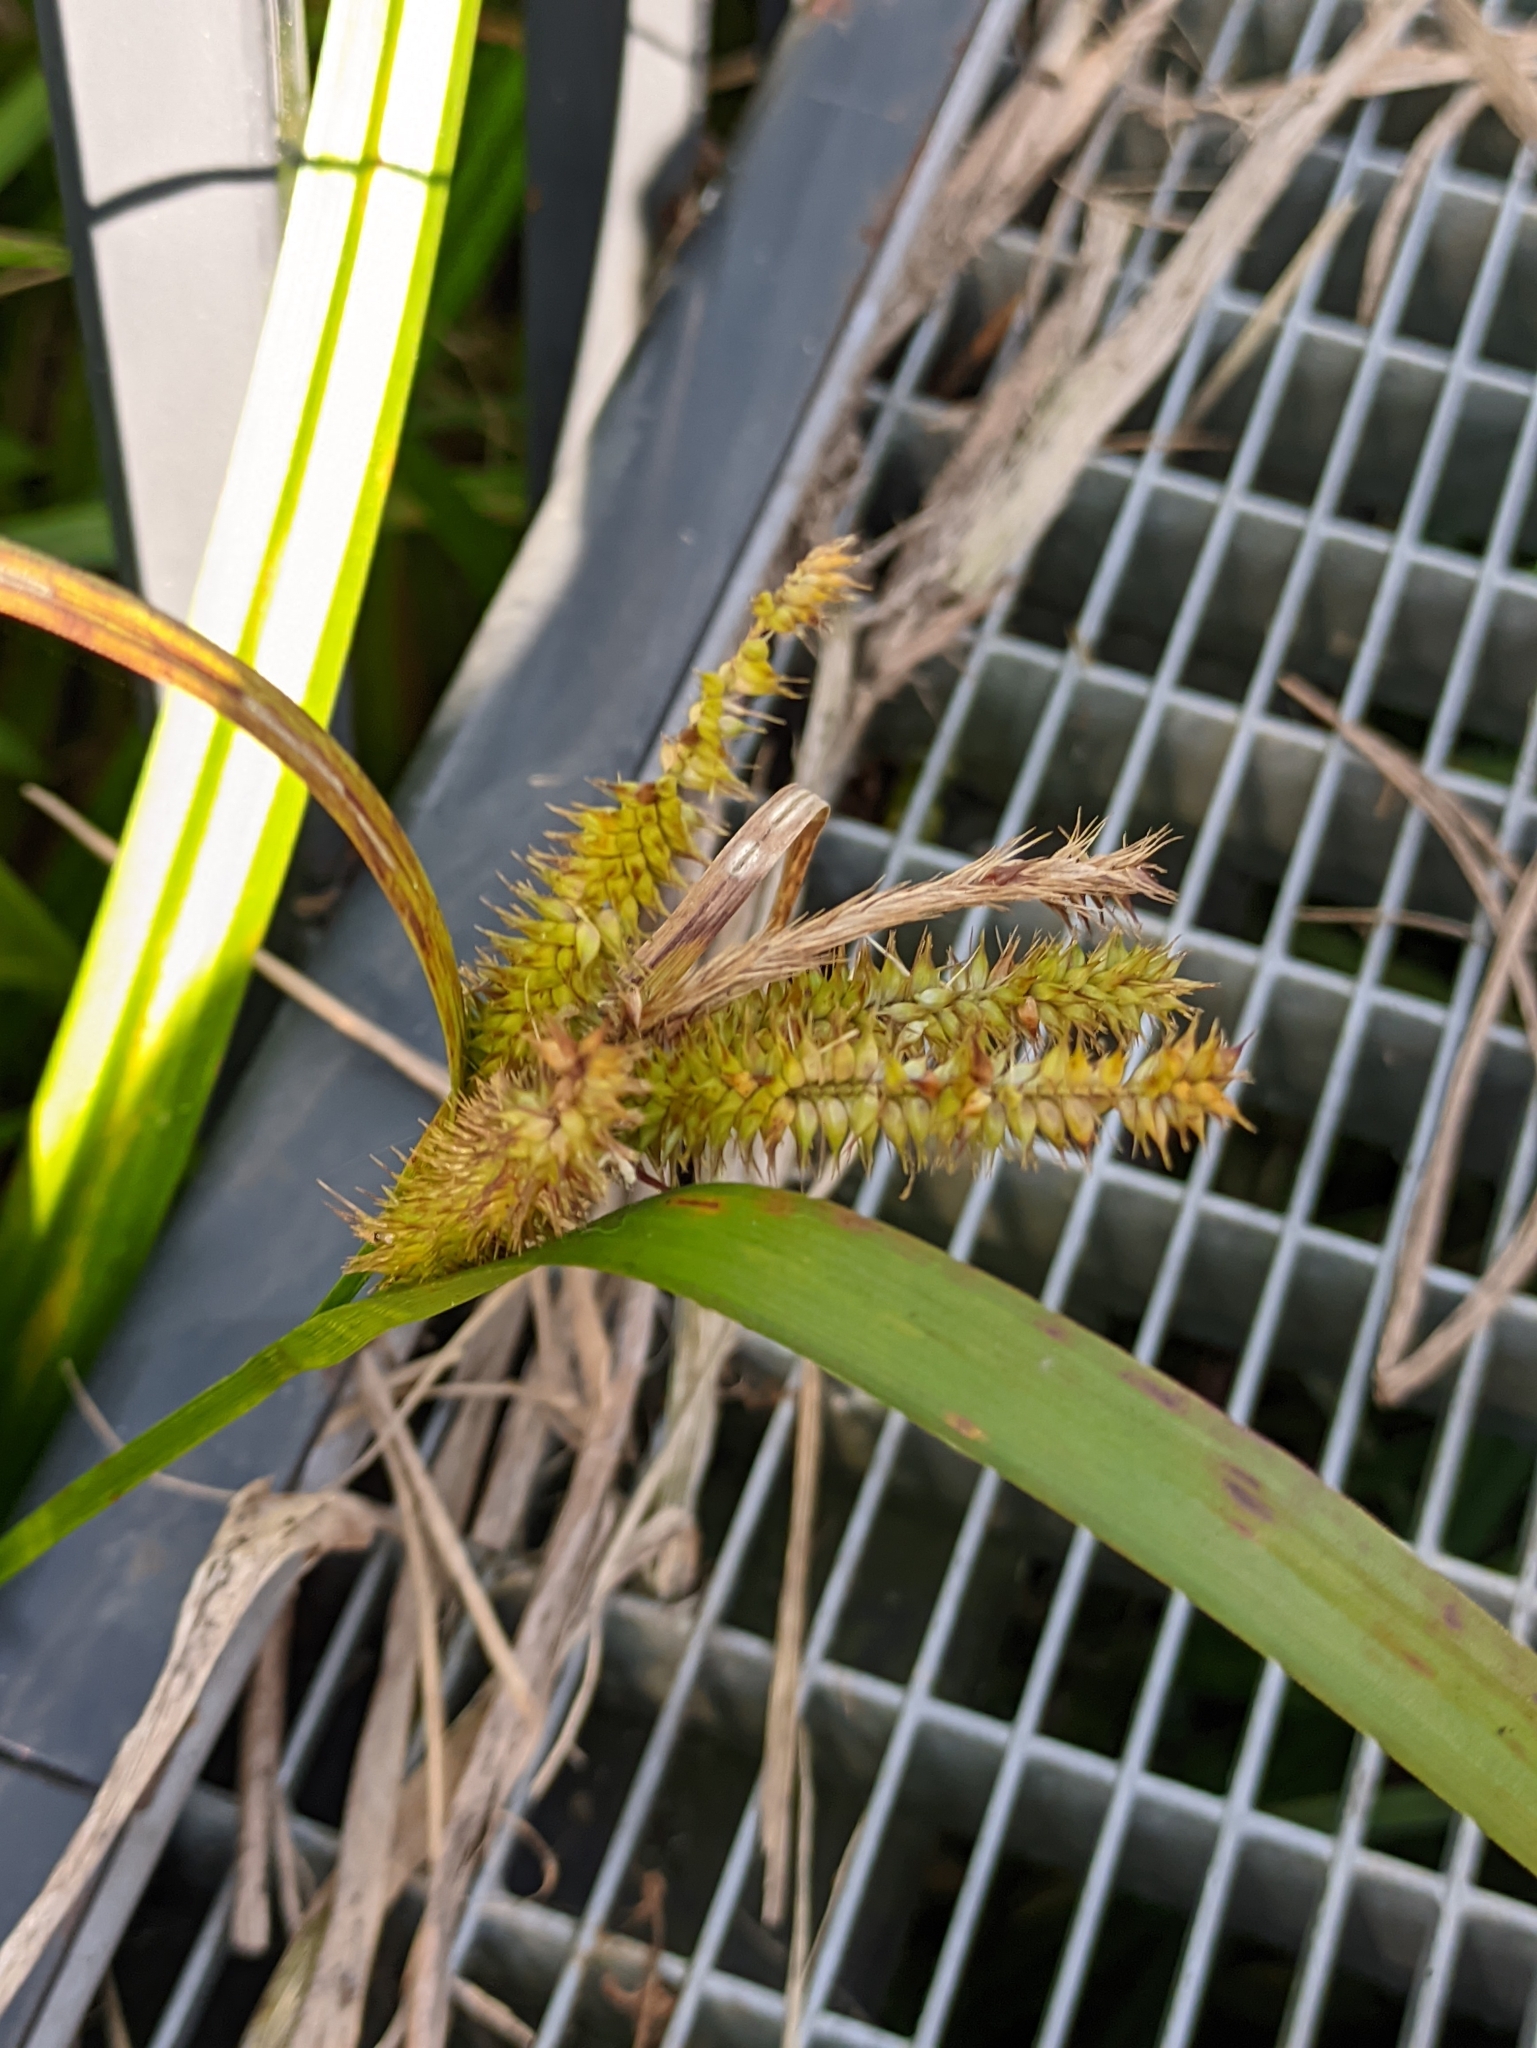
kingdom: Plantae
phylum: Tracheophyta
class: Liliopsida
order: Poales
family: Cyperaceae
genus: Carex
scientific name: Carex pseudocyperus
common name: Cyperus sedge
